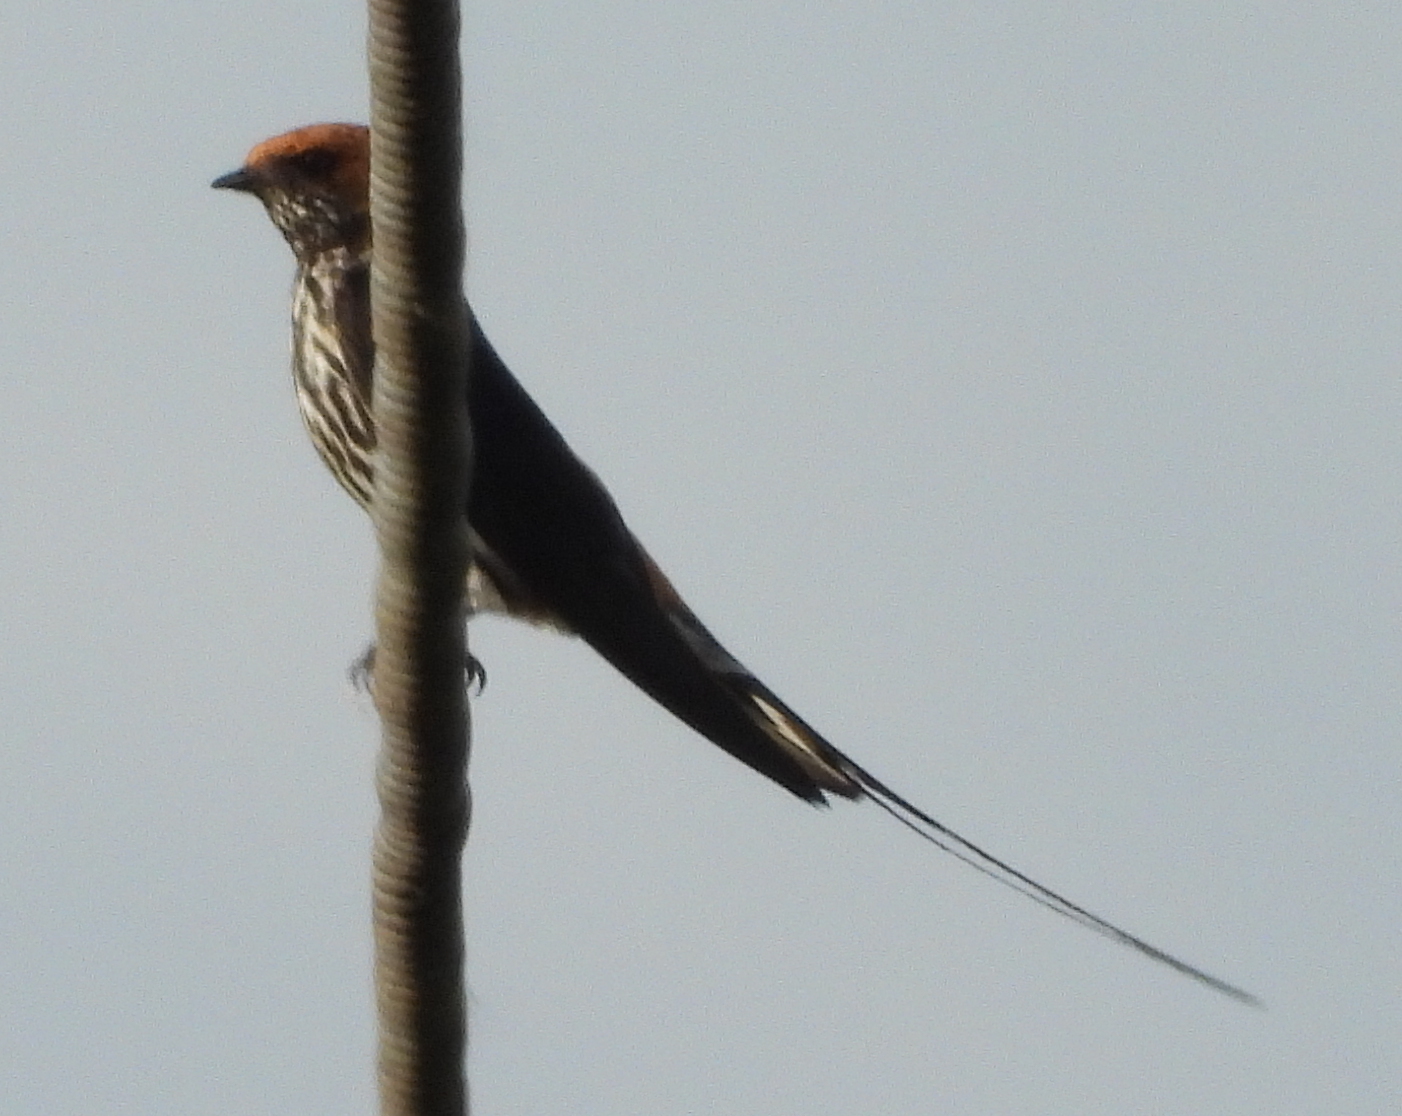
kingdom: Animalia
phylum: Chordata
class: Aves
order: Passeriformes
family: Hirundinidae
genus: Cecropis
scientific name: Cecropis abyssinica
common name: Lesser striped-swallow
